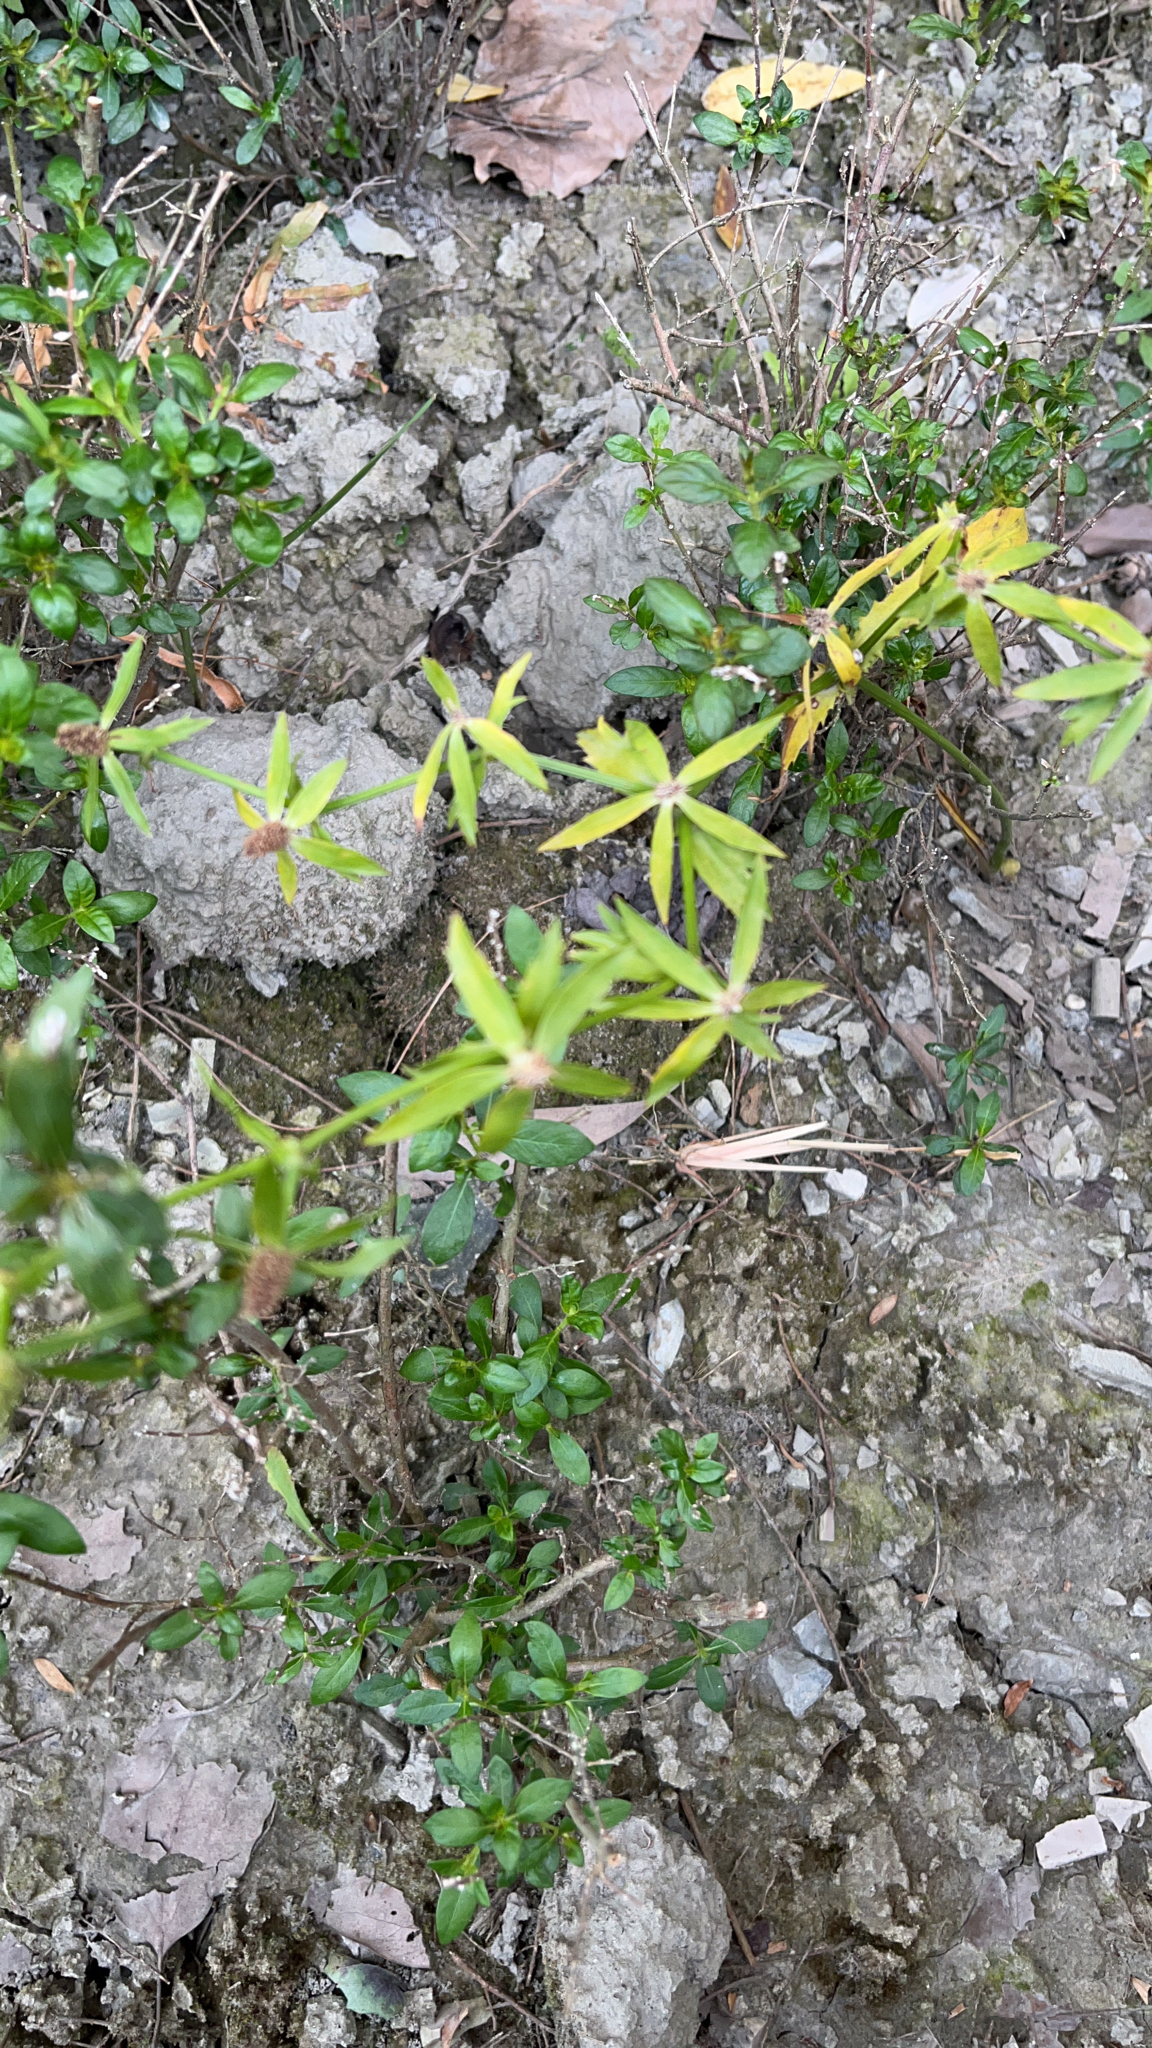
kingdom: Plantae
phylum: Tracheophyta
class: Magnoliopsida
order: Apiales
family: Apiaceae
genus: Eryngium
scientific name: Eryngium foetidum
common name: Fitweed
